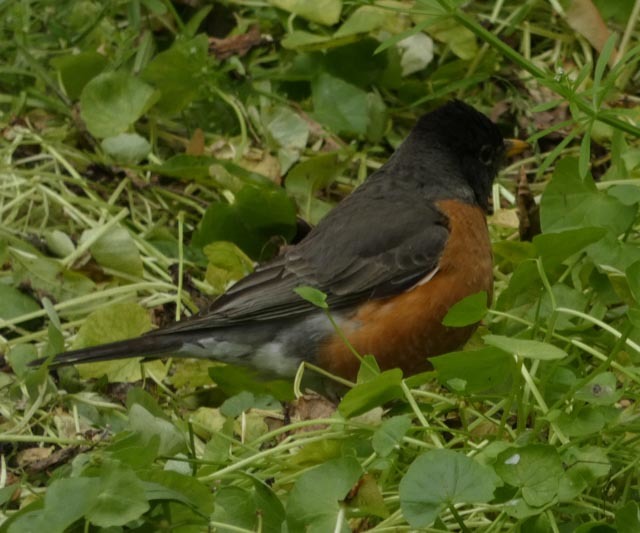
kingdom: Animalia
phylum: Chordata
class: Aves
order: Passeriformes
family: Turdidae
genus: Turdus
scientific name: Turdus migratorius
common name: American robin
